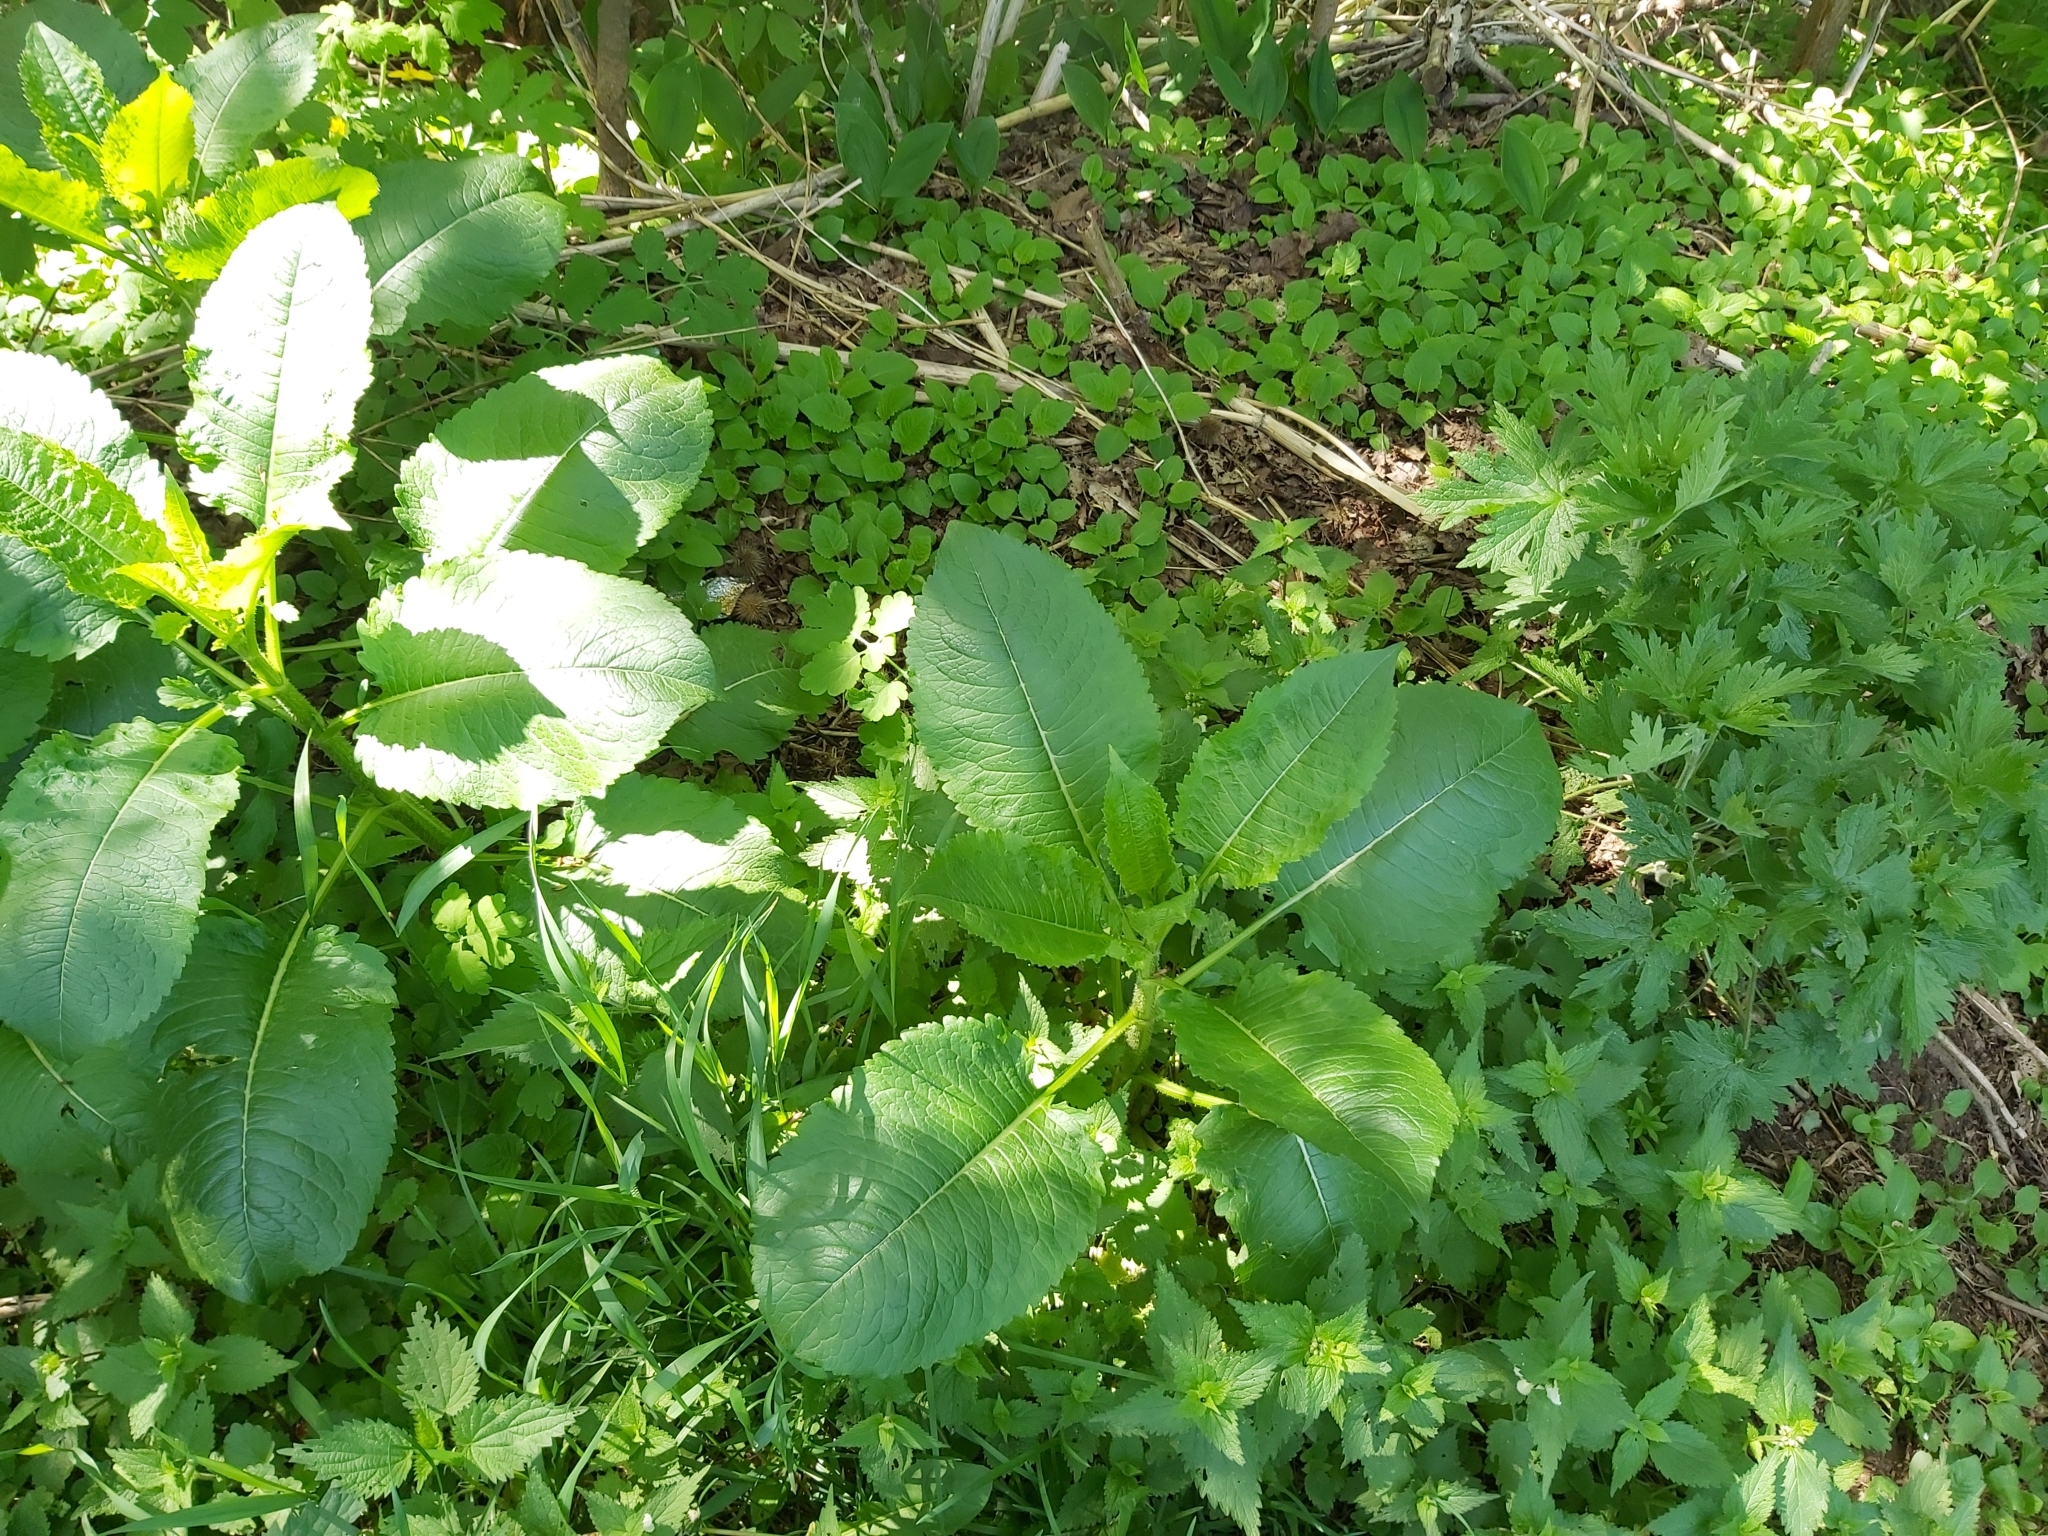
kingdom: Plantae
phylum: Tracheophyta
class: Magnoliopsida
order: Dipsacales
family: Caprifoliaceae
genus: Dipsacus
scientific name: Dipsacus strigosus
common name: Yellow-flowered teasel
